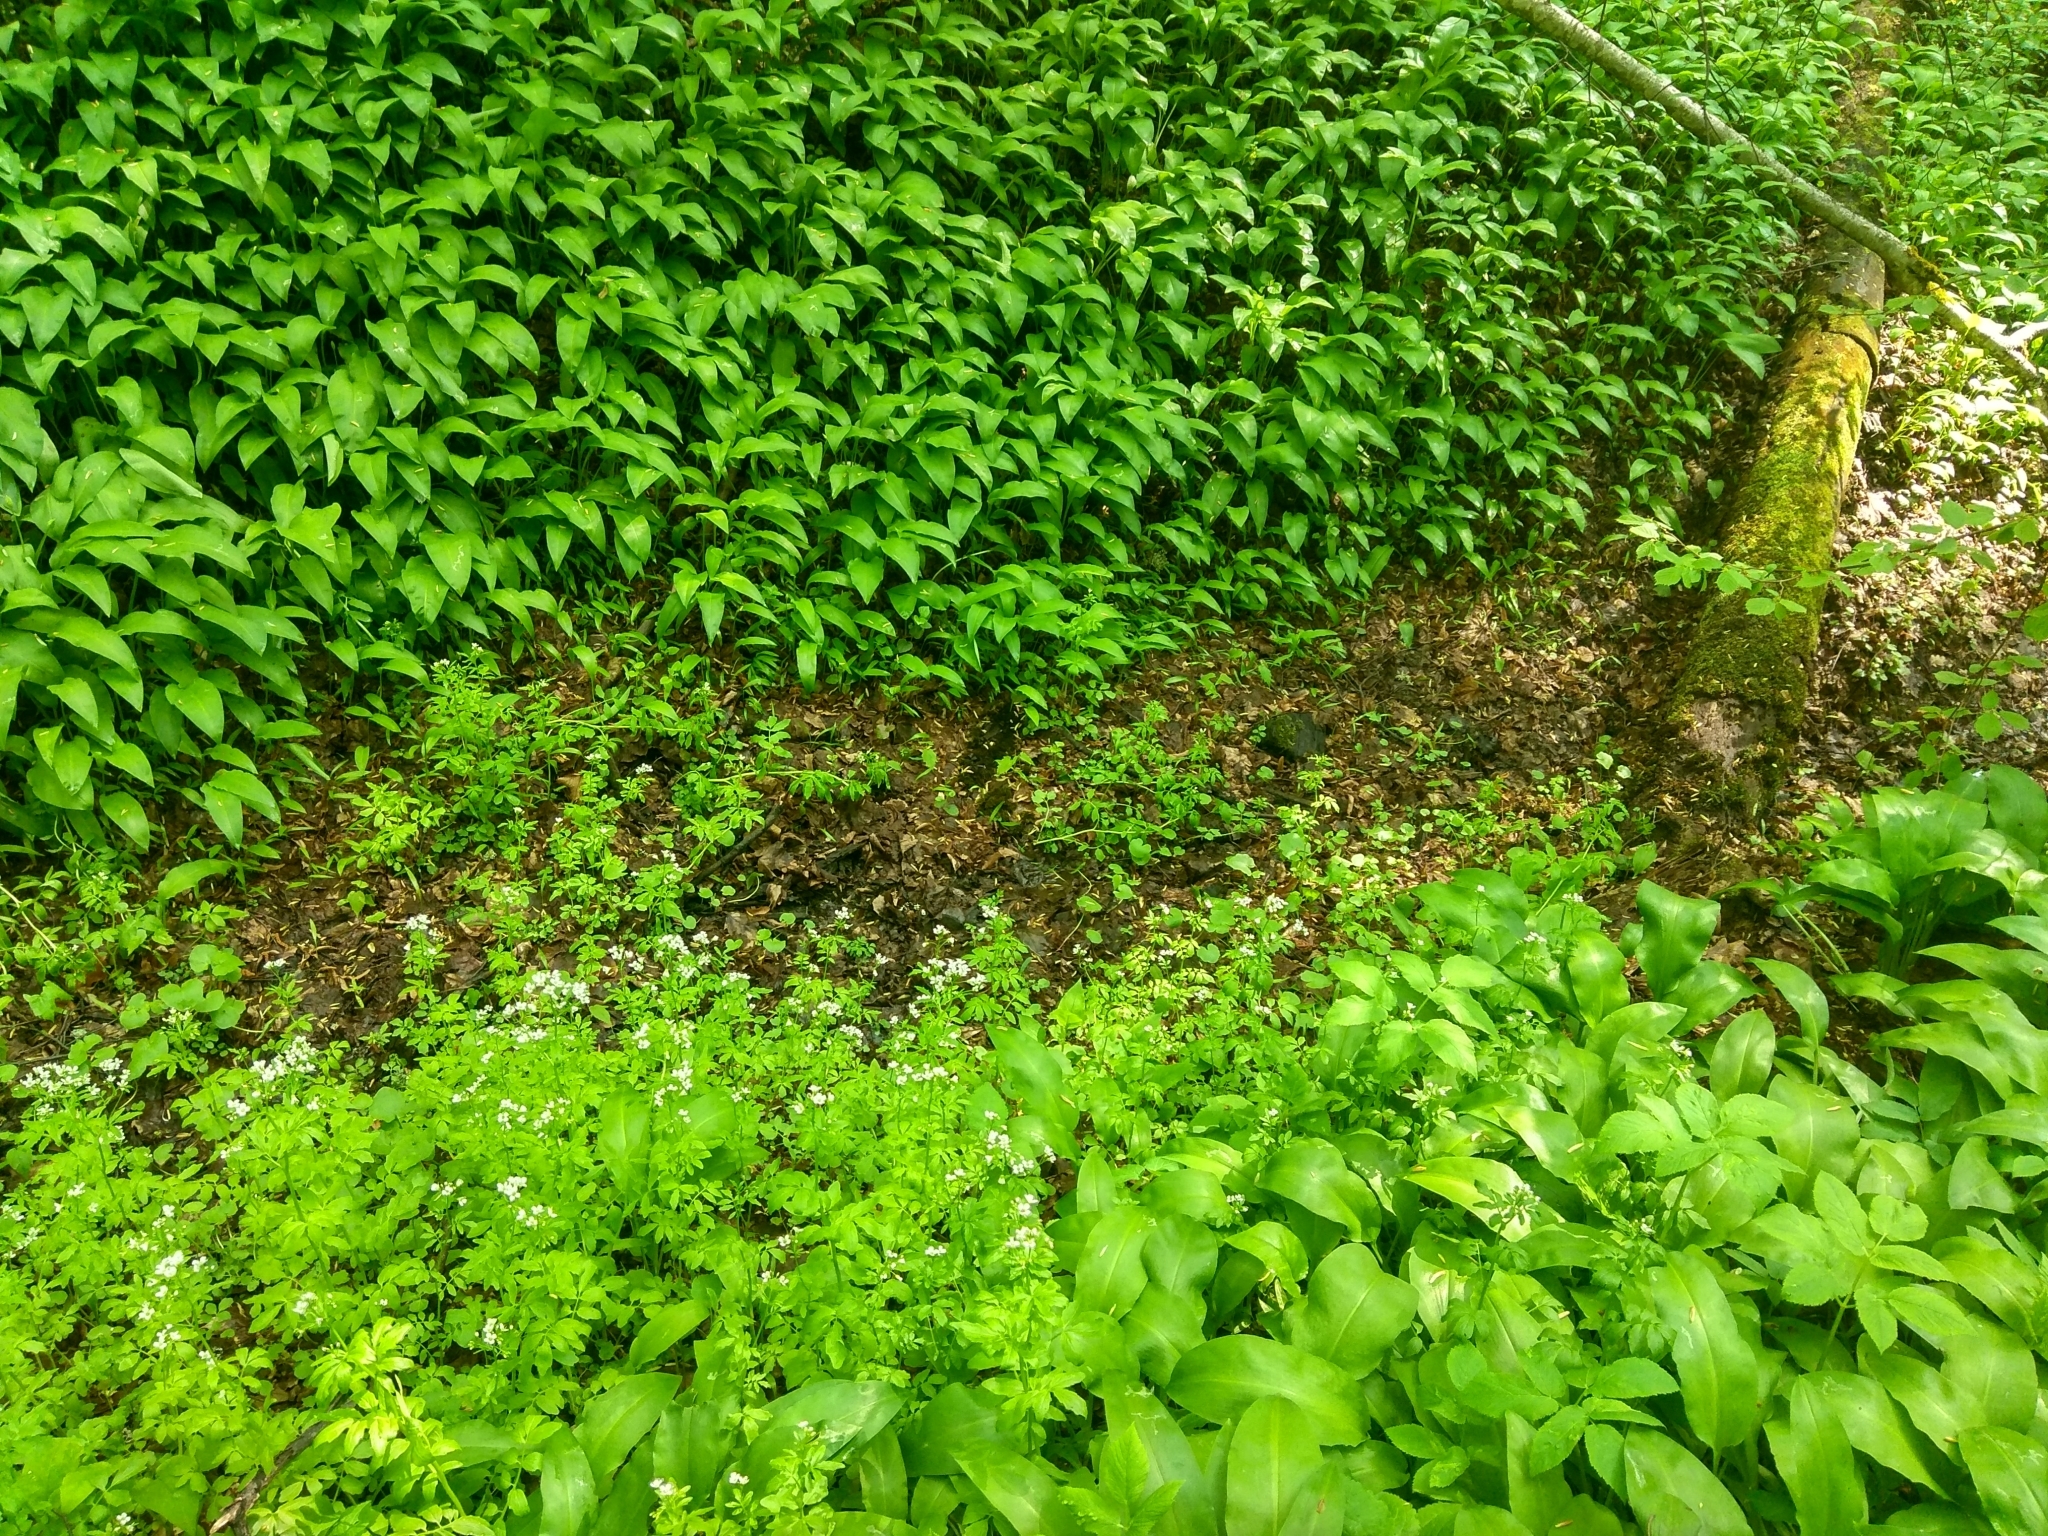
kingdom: Plantae
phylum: Tracheophyta
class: Magnoliopsida
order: Brassicales
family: Brassicaceae
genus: Cardamine
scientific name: Cardamine amara
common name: Large bitter-cress
